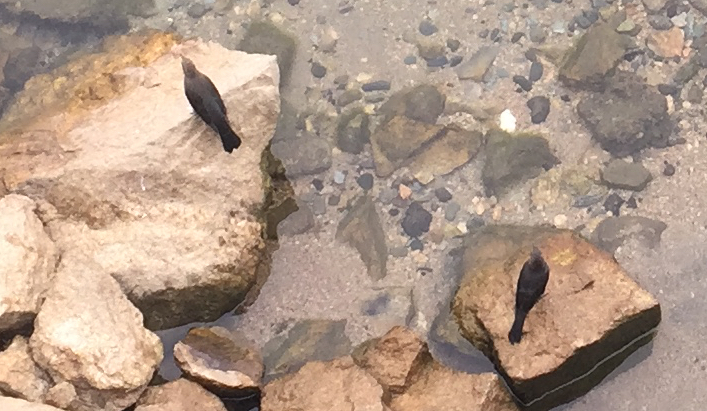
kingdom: Animalia
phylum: Chordata
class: Aves
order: Passeriformes
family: Icteridae
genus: Euphagus
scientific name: Euphagus cyanocephalus
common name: Brewer's blackbird
